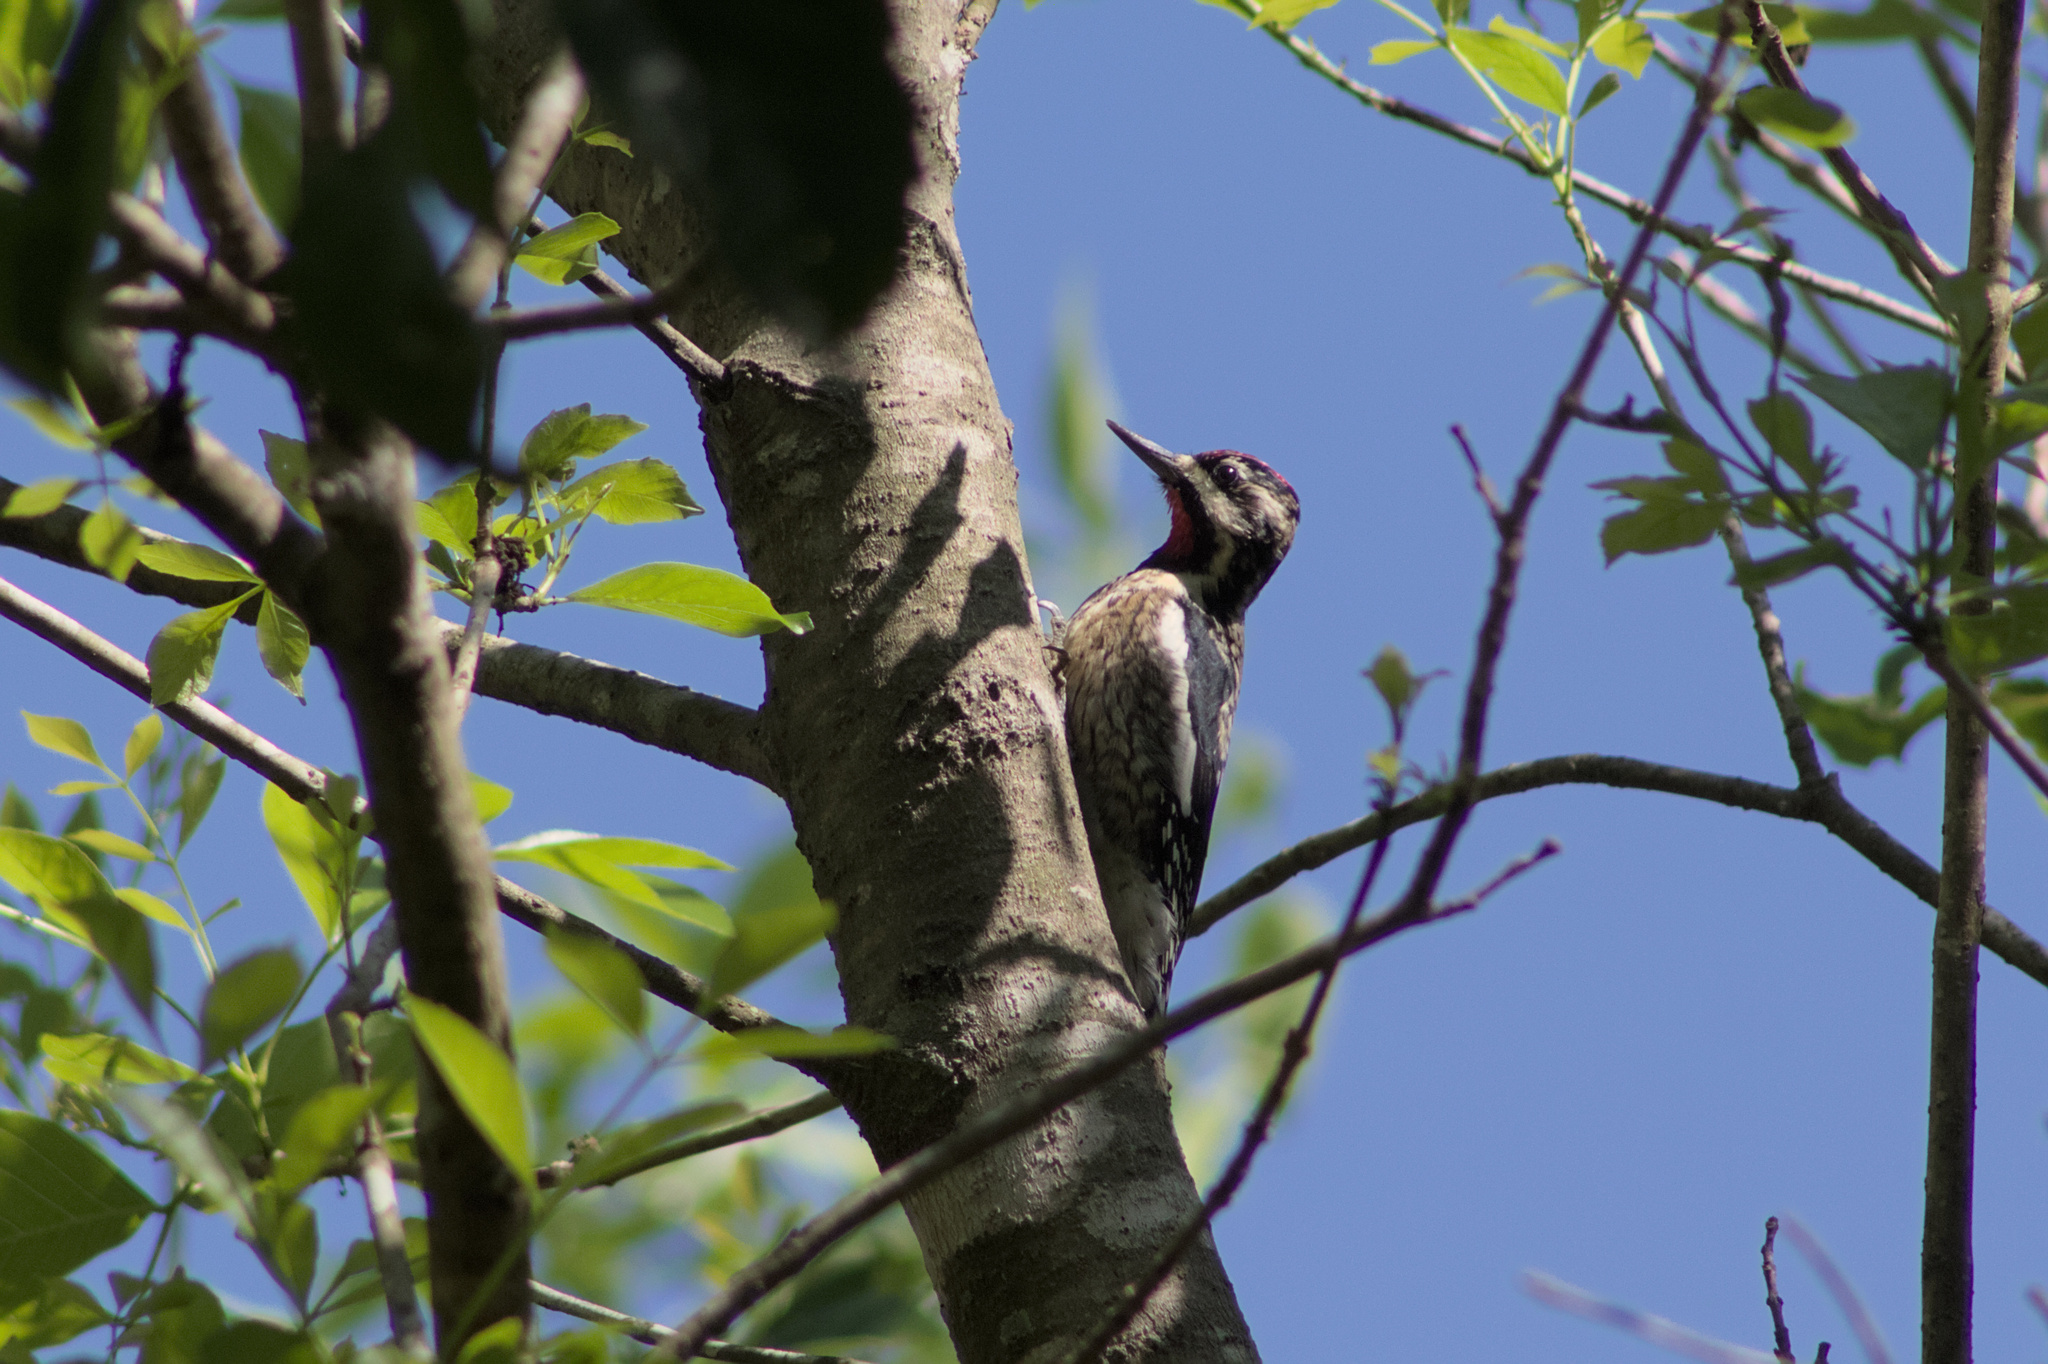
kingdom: Animalia
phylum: Chordata
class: Aves
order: Piciformes
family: Picidae
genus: Sphyrapicus
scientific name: Sphyrapicus varius
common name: Yellow-bellied sapsucker
